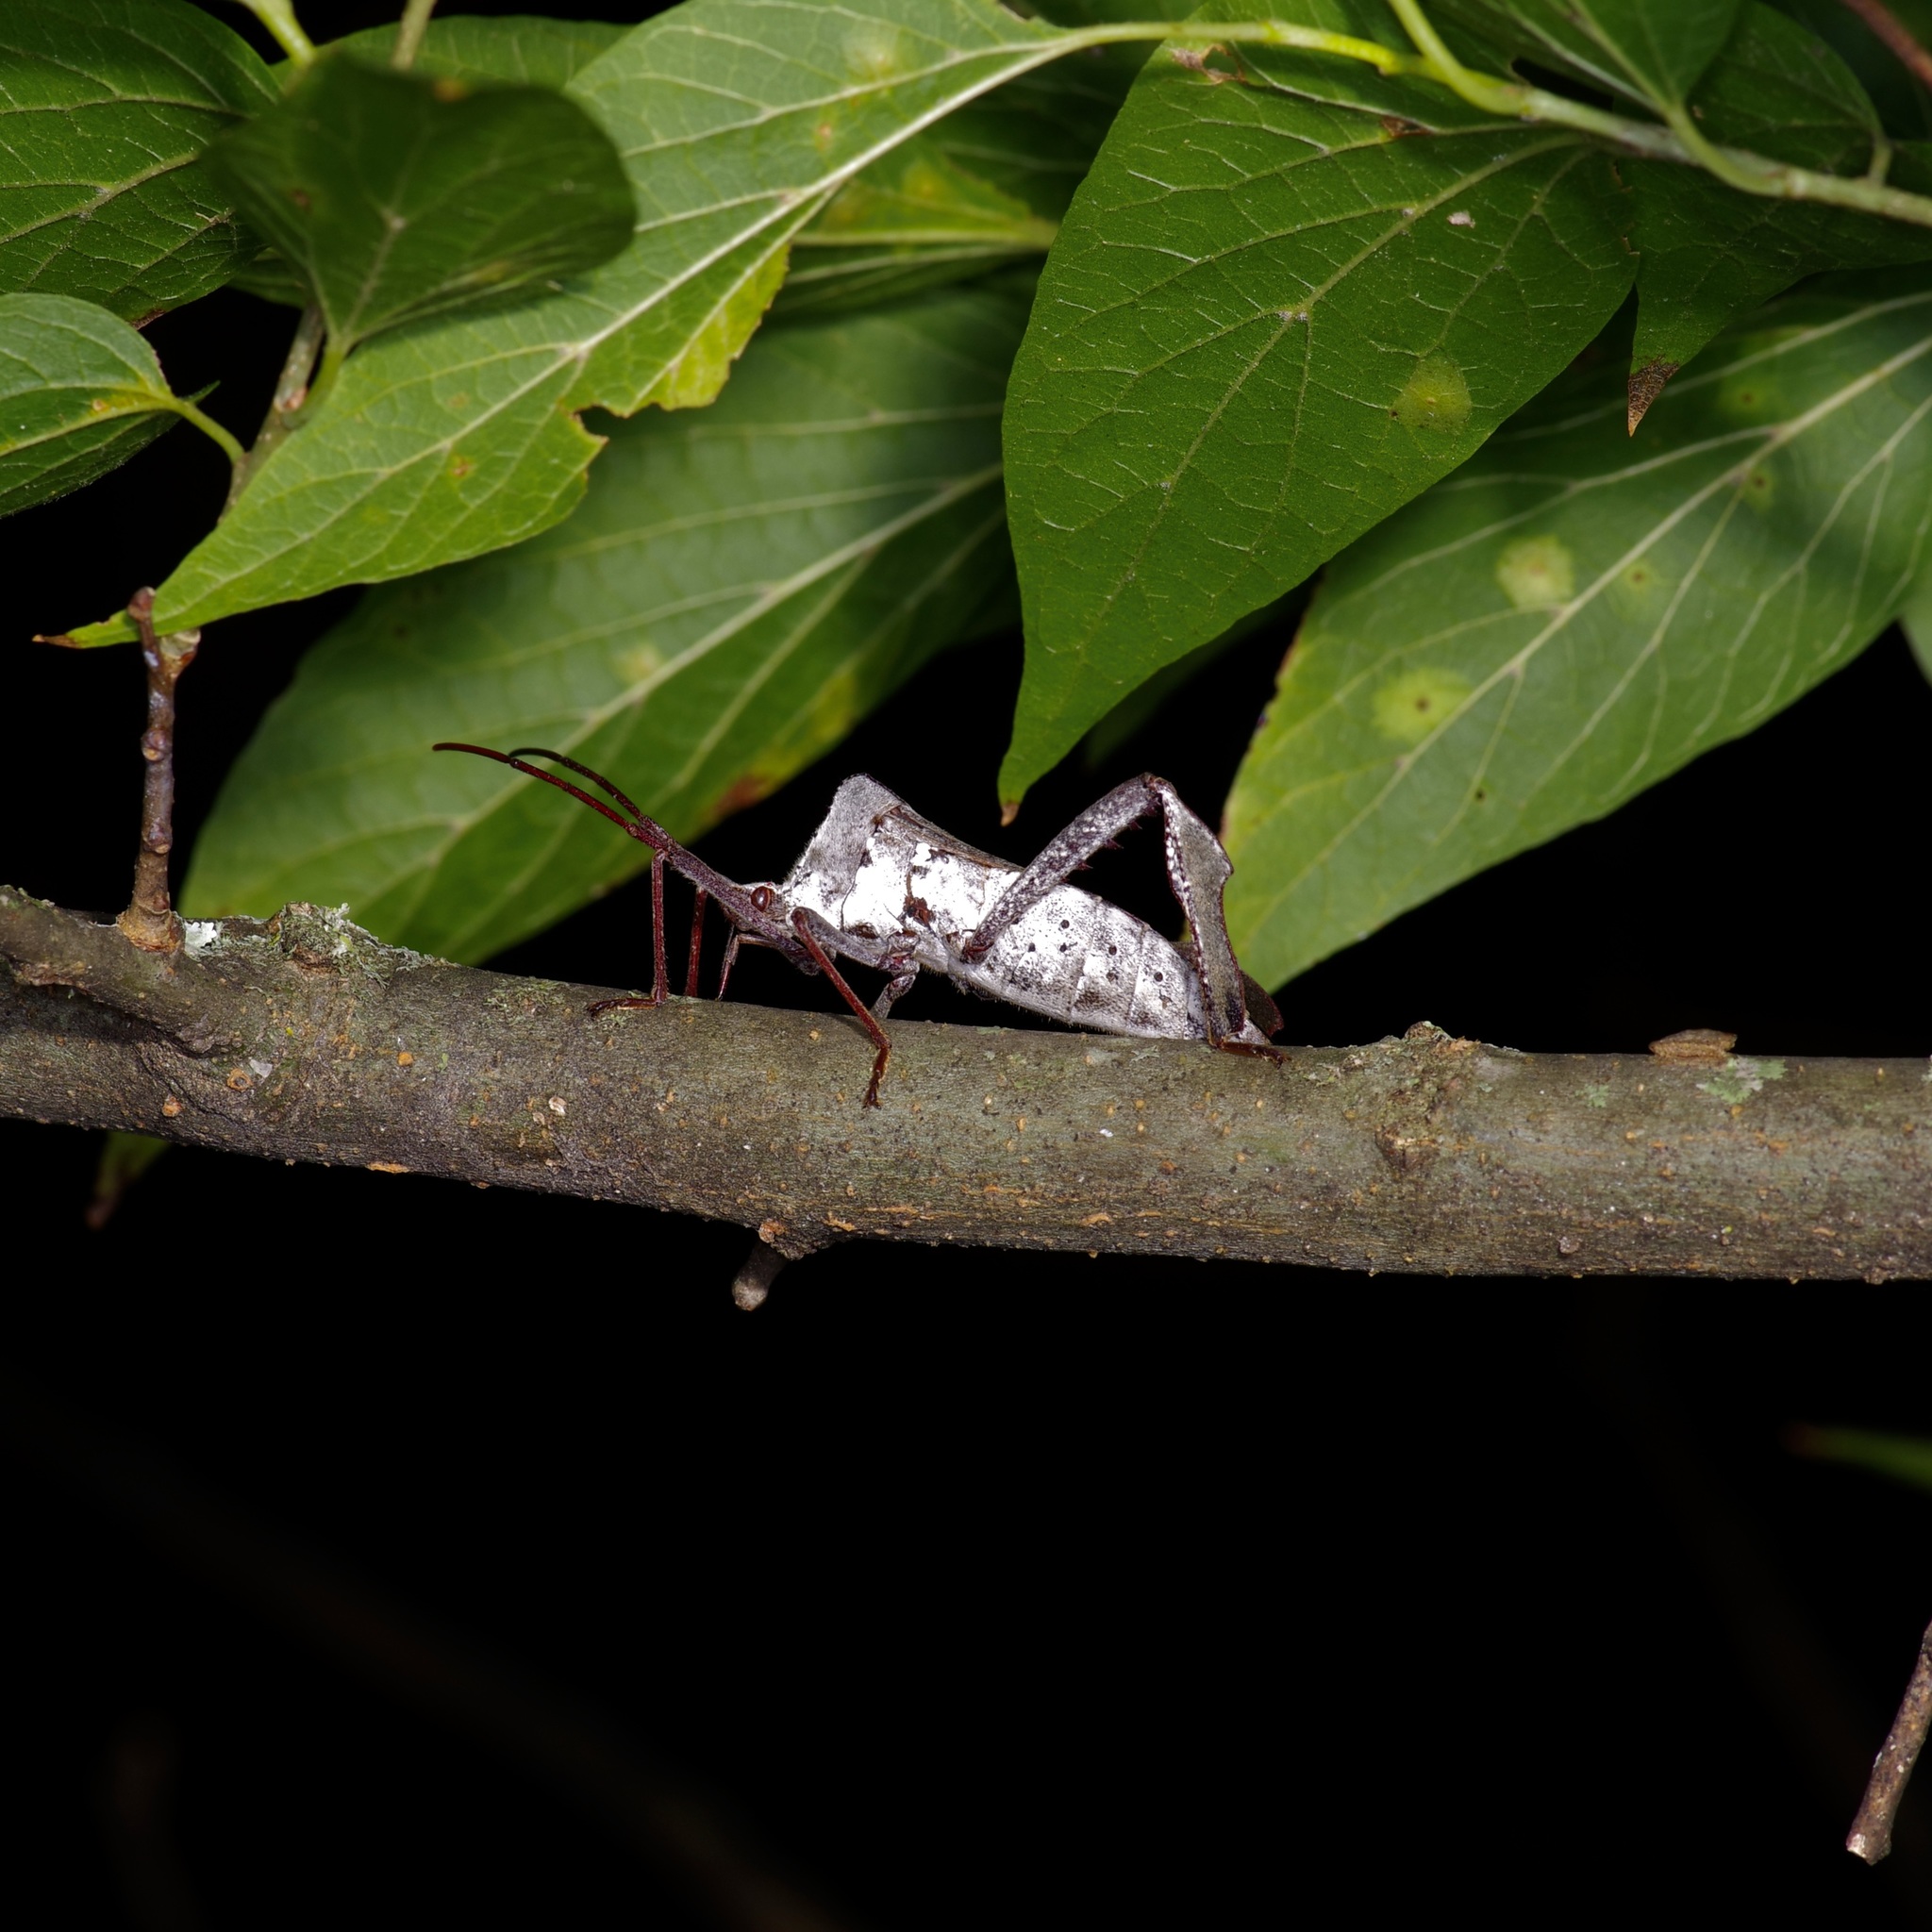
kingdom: Animalia
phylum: Arthropoda
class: Insecta
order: Hemiptera
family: Coreidae
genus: Acanthocephala
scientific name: Acanthocephala declivis
